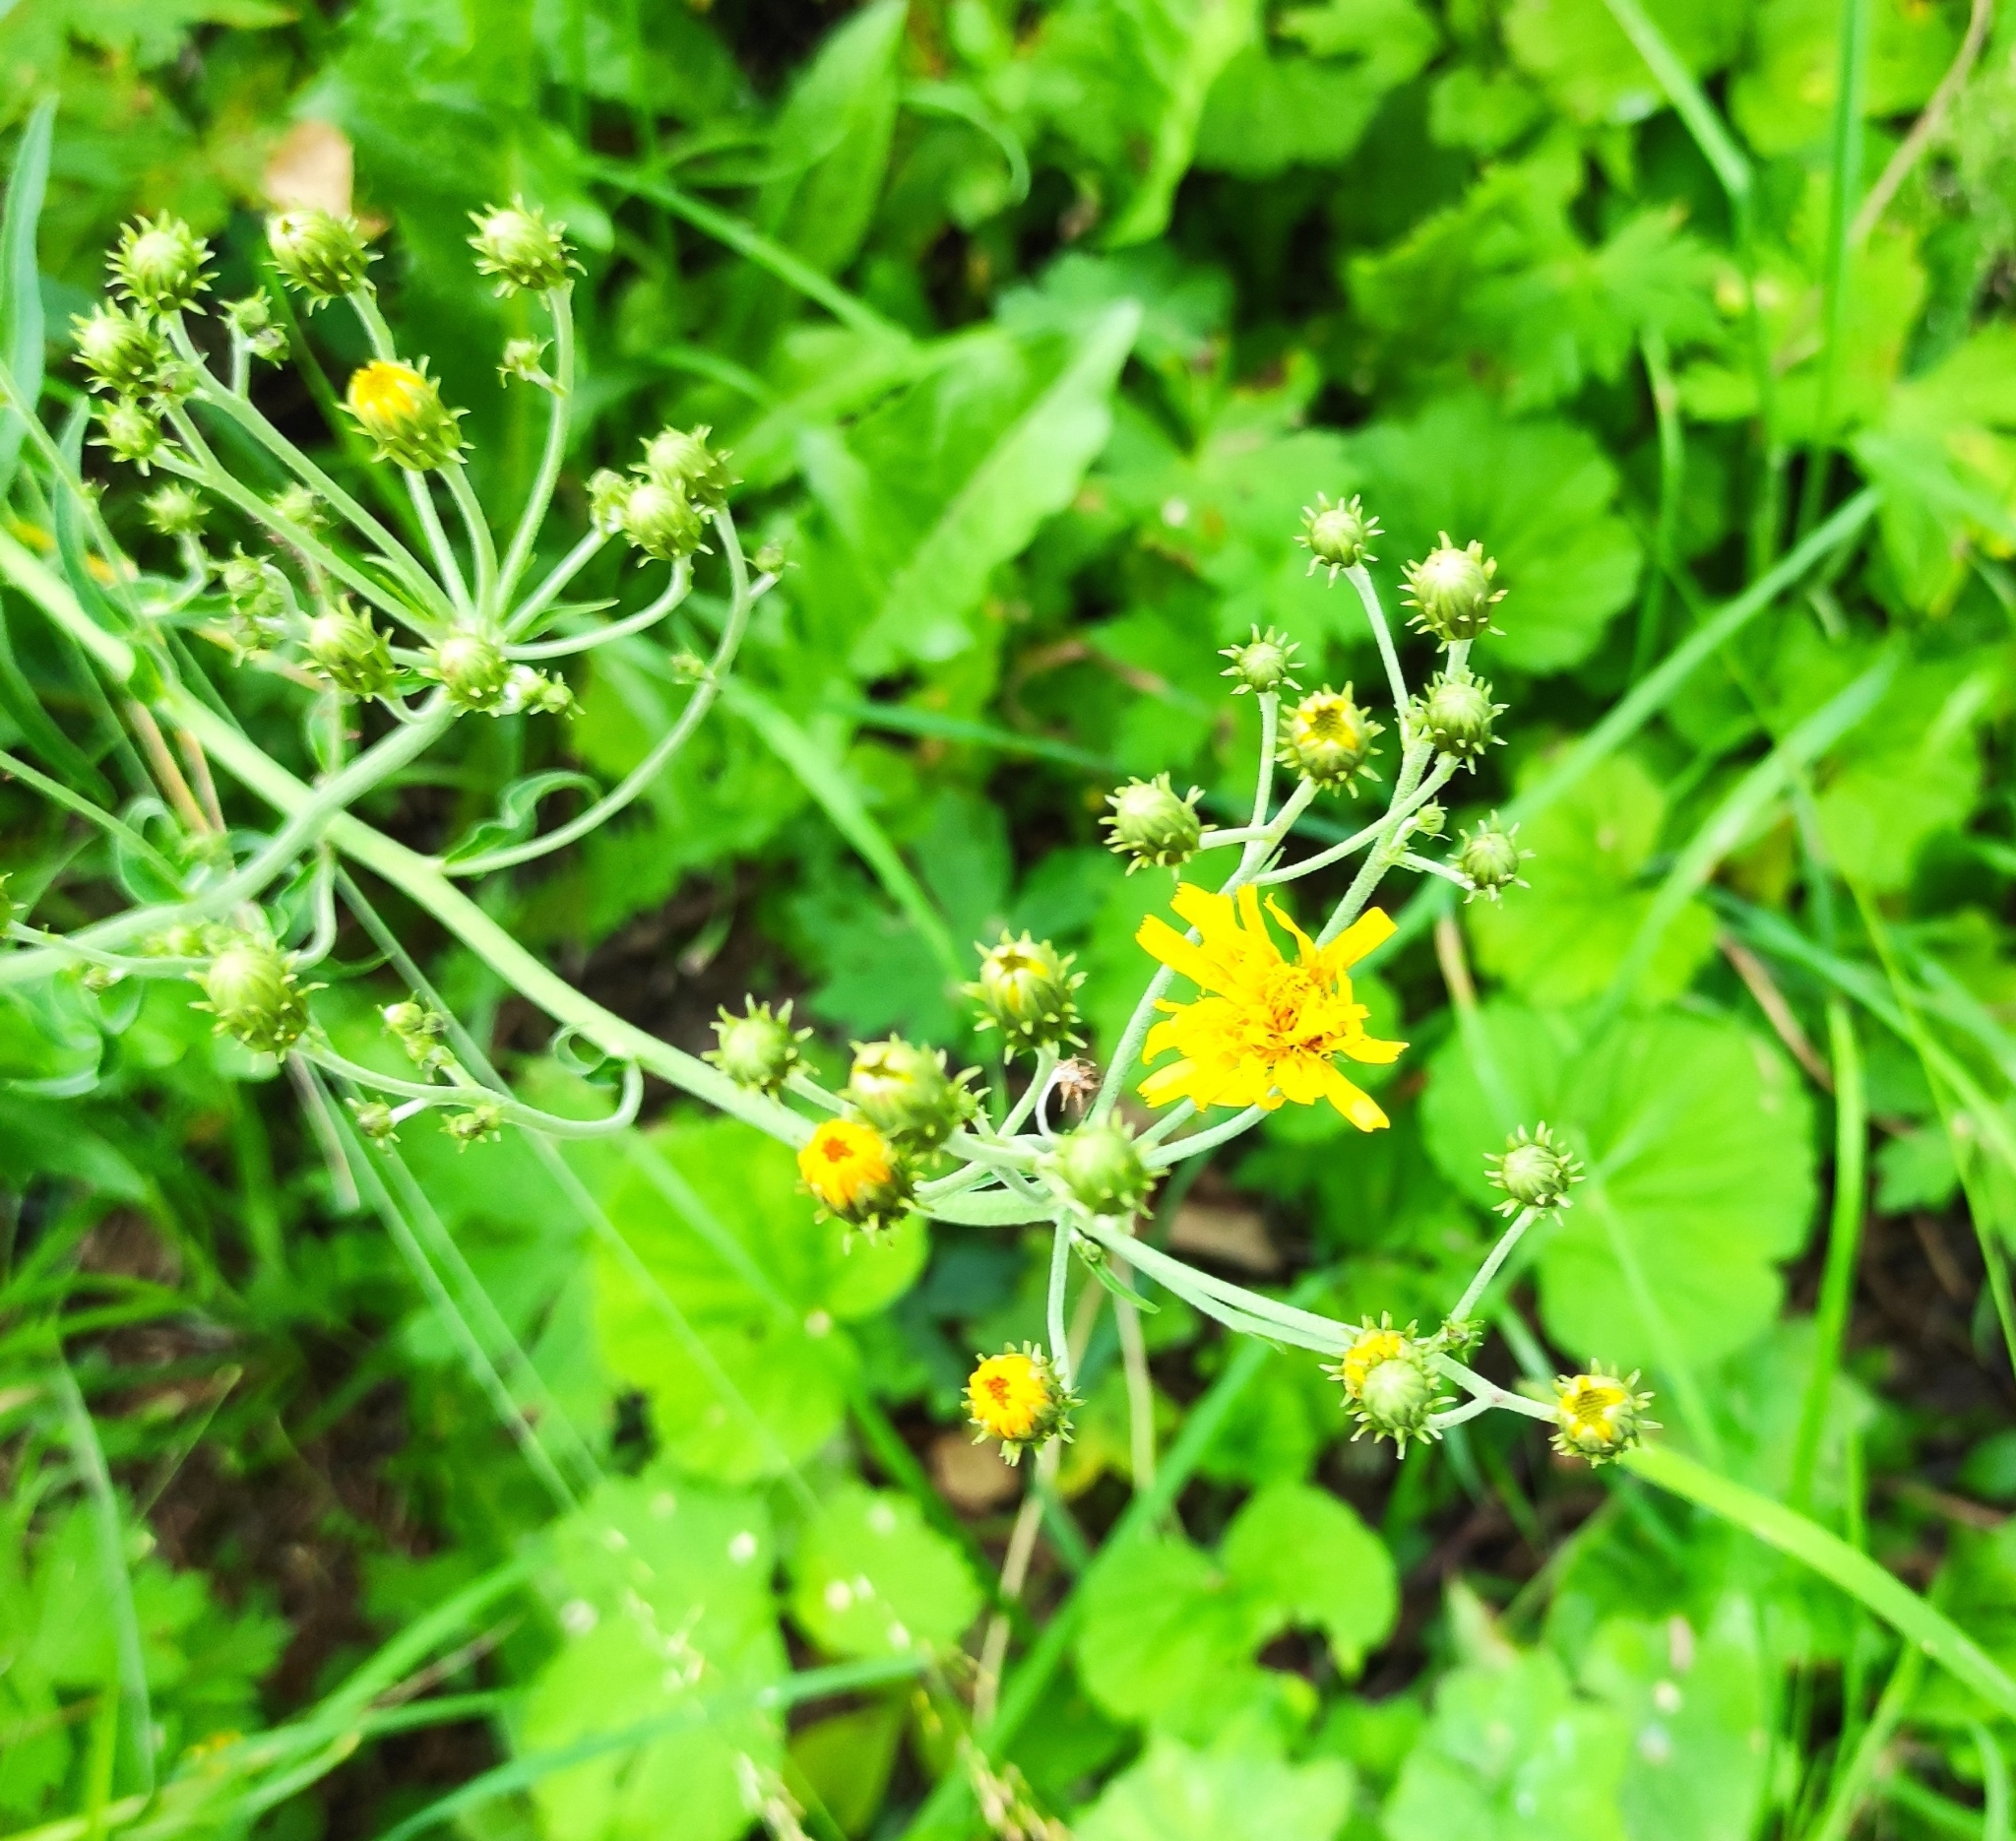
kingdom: Plantae
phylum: Tracheophyta
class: Magnoliopsida
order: Asterales
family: Asteraceae
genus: Hieracium
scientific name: Hieracium umbellatum
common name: Northern hawkweed
